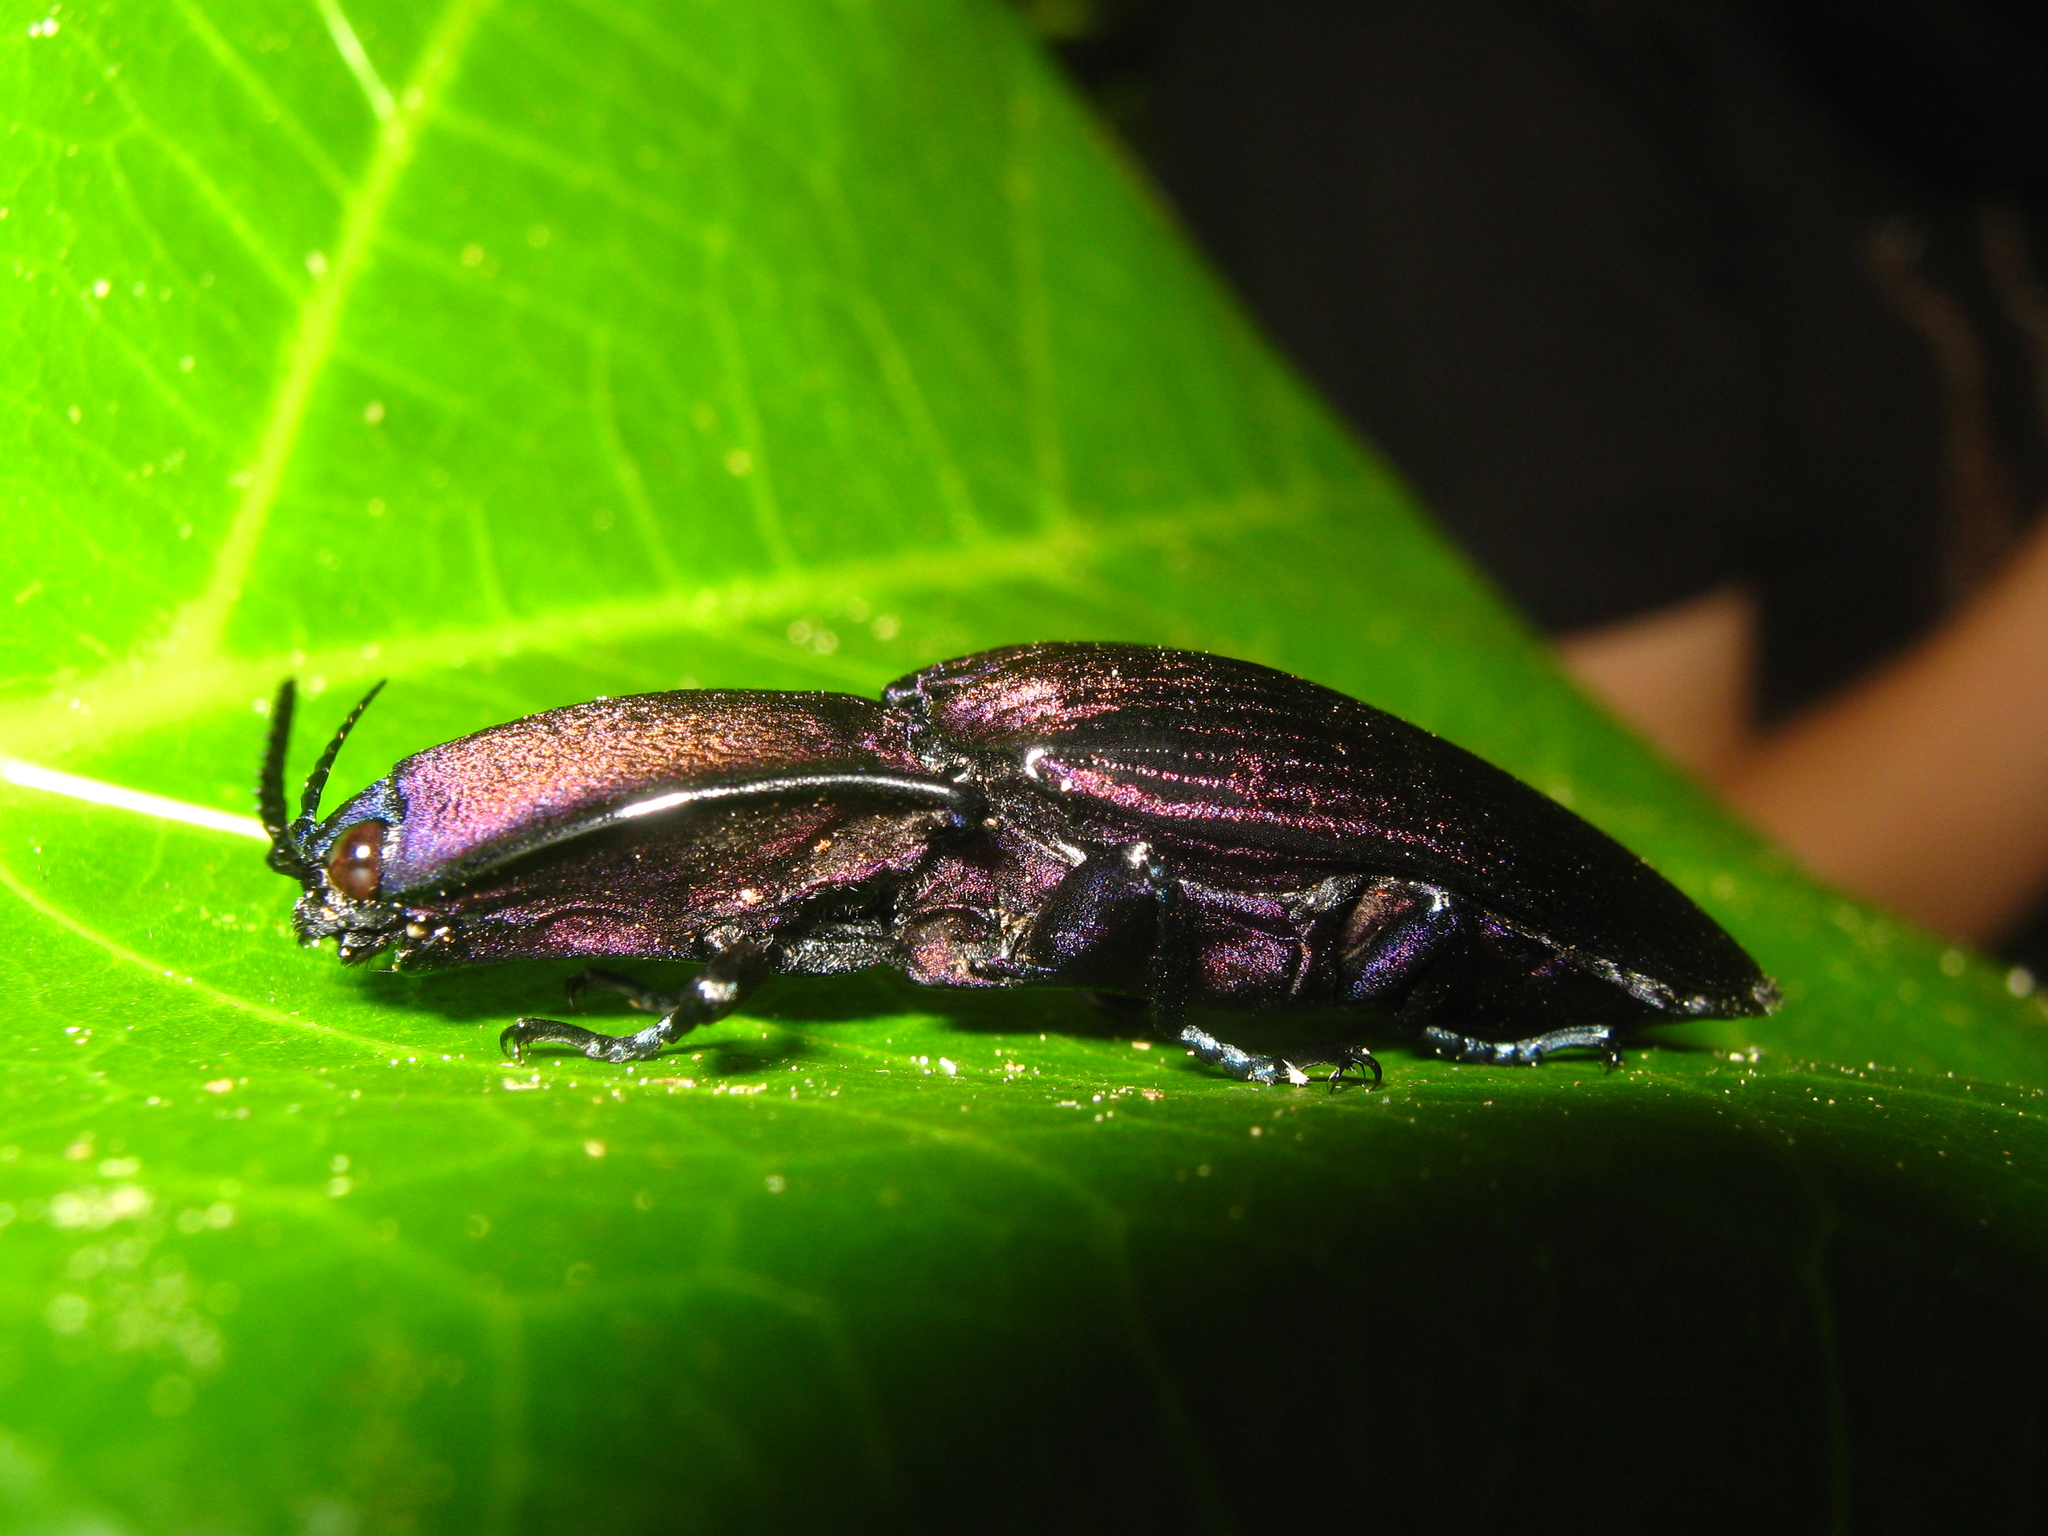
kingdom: Animalia
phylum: Arthropoda
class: Insecta
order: Coleoptera
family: Elateridae
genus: Chalcolepidius
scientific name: Chalcolepidius silbermanni
